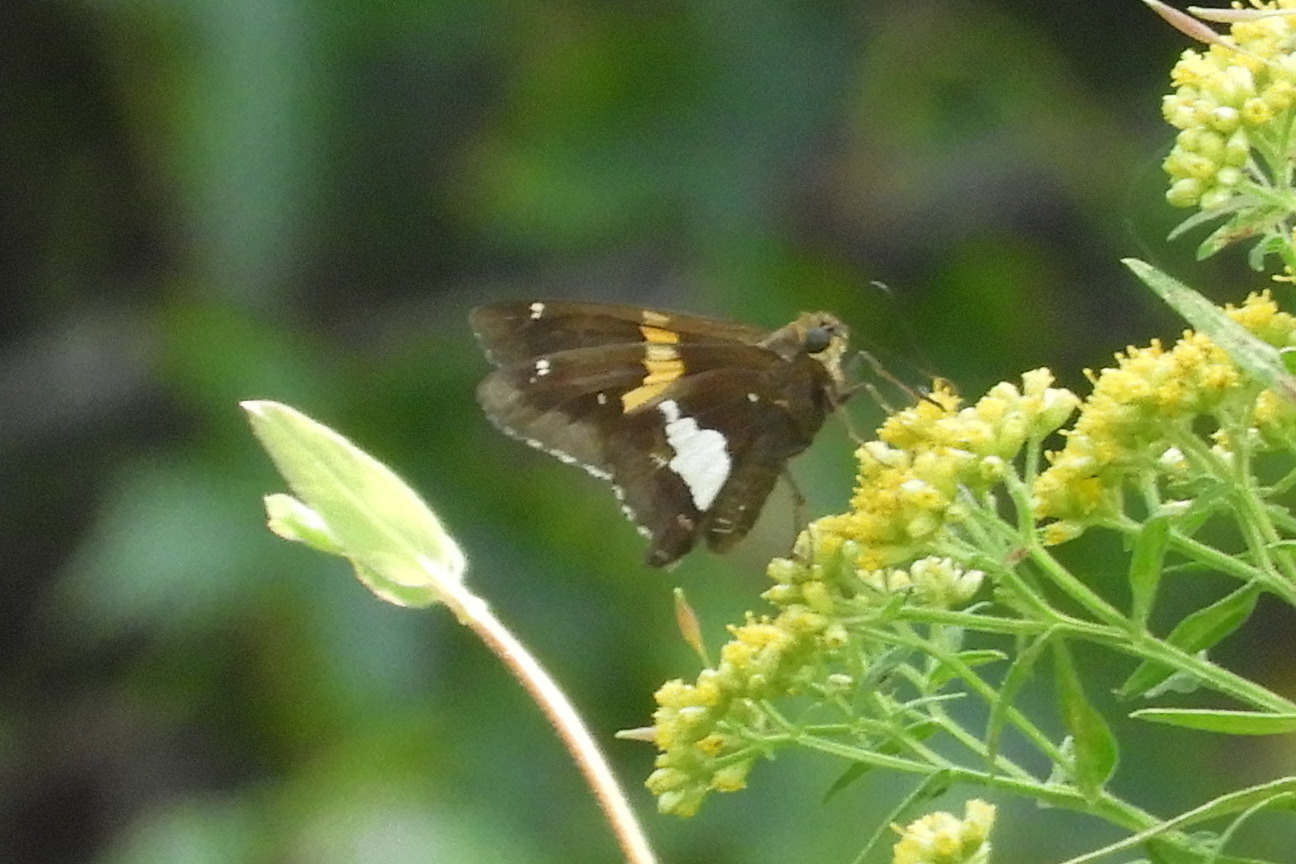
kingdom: Animalia
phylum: Arthropoda
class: Insecta
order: Lepidoptera
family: Hesperiidae
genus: Epargyreus
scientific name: Epargyreus clarus
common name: Silver-spotted skipper
